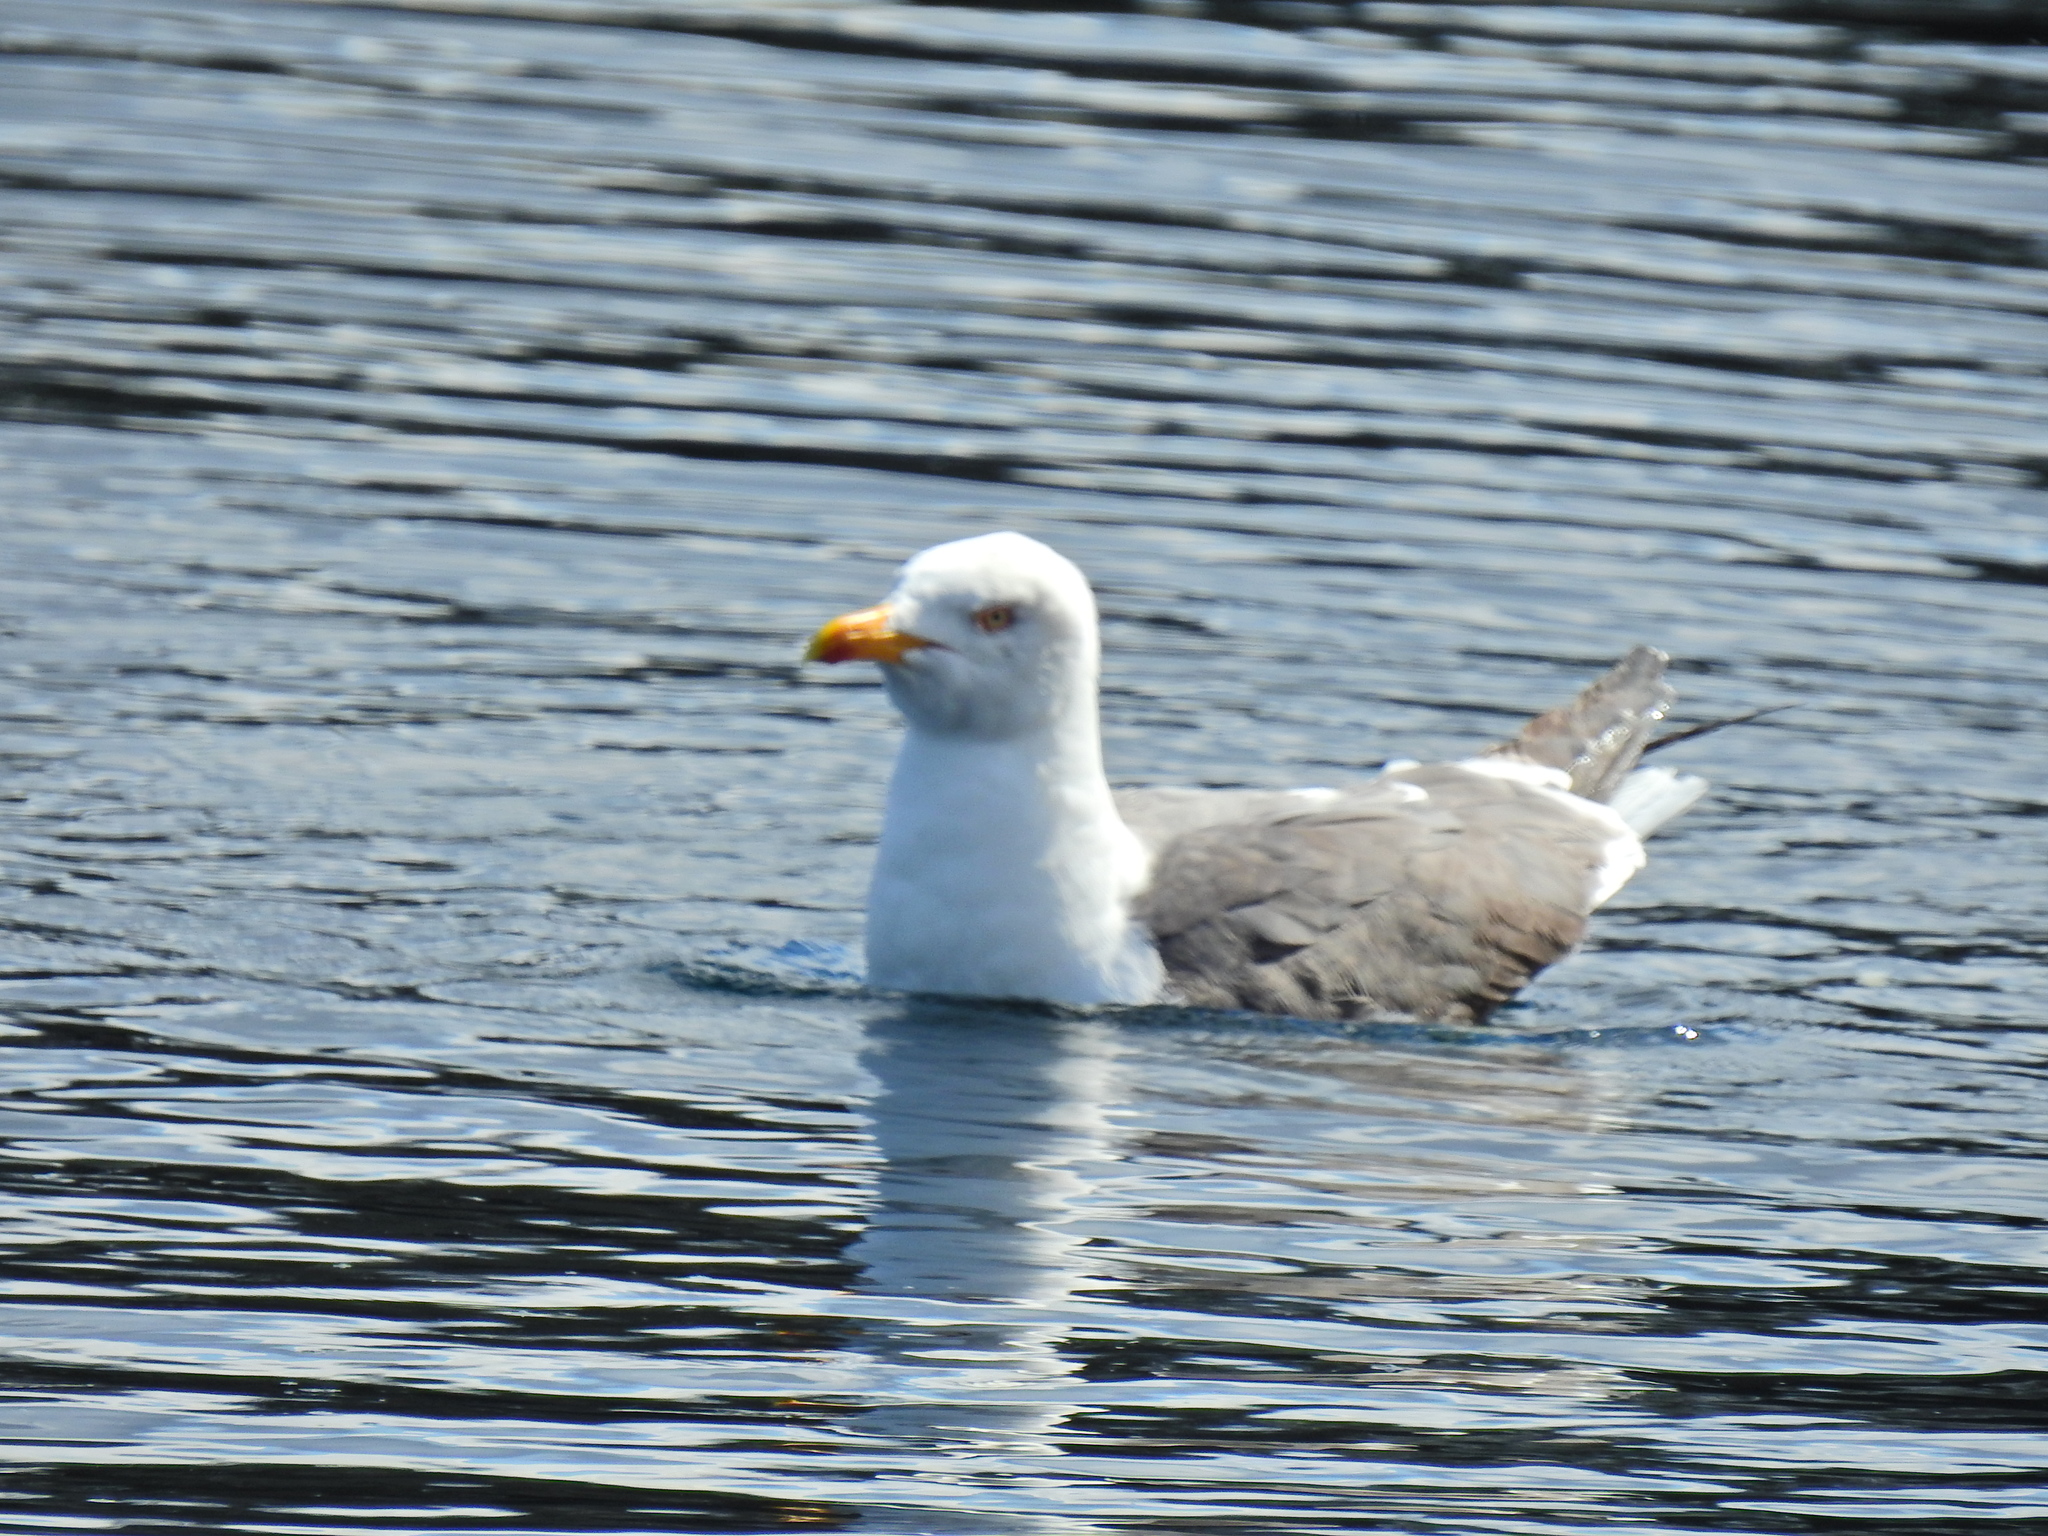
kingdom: Animalia
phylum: Chordata
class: Aves
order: Charadriiformes
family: Laridae
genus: Larus
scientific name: Larus fuscus
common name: Lesser black-backed gull
